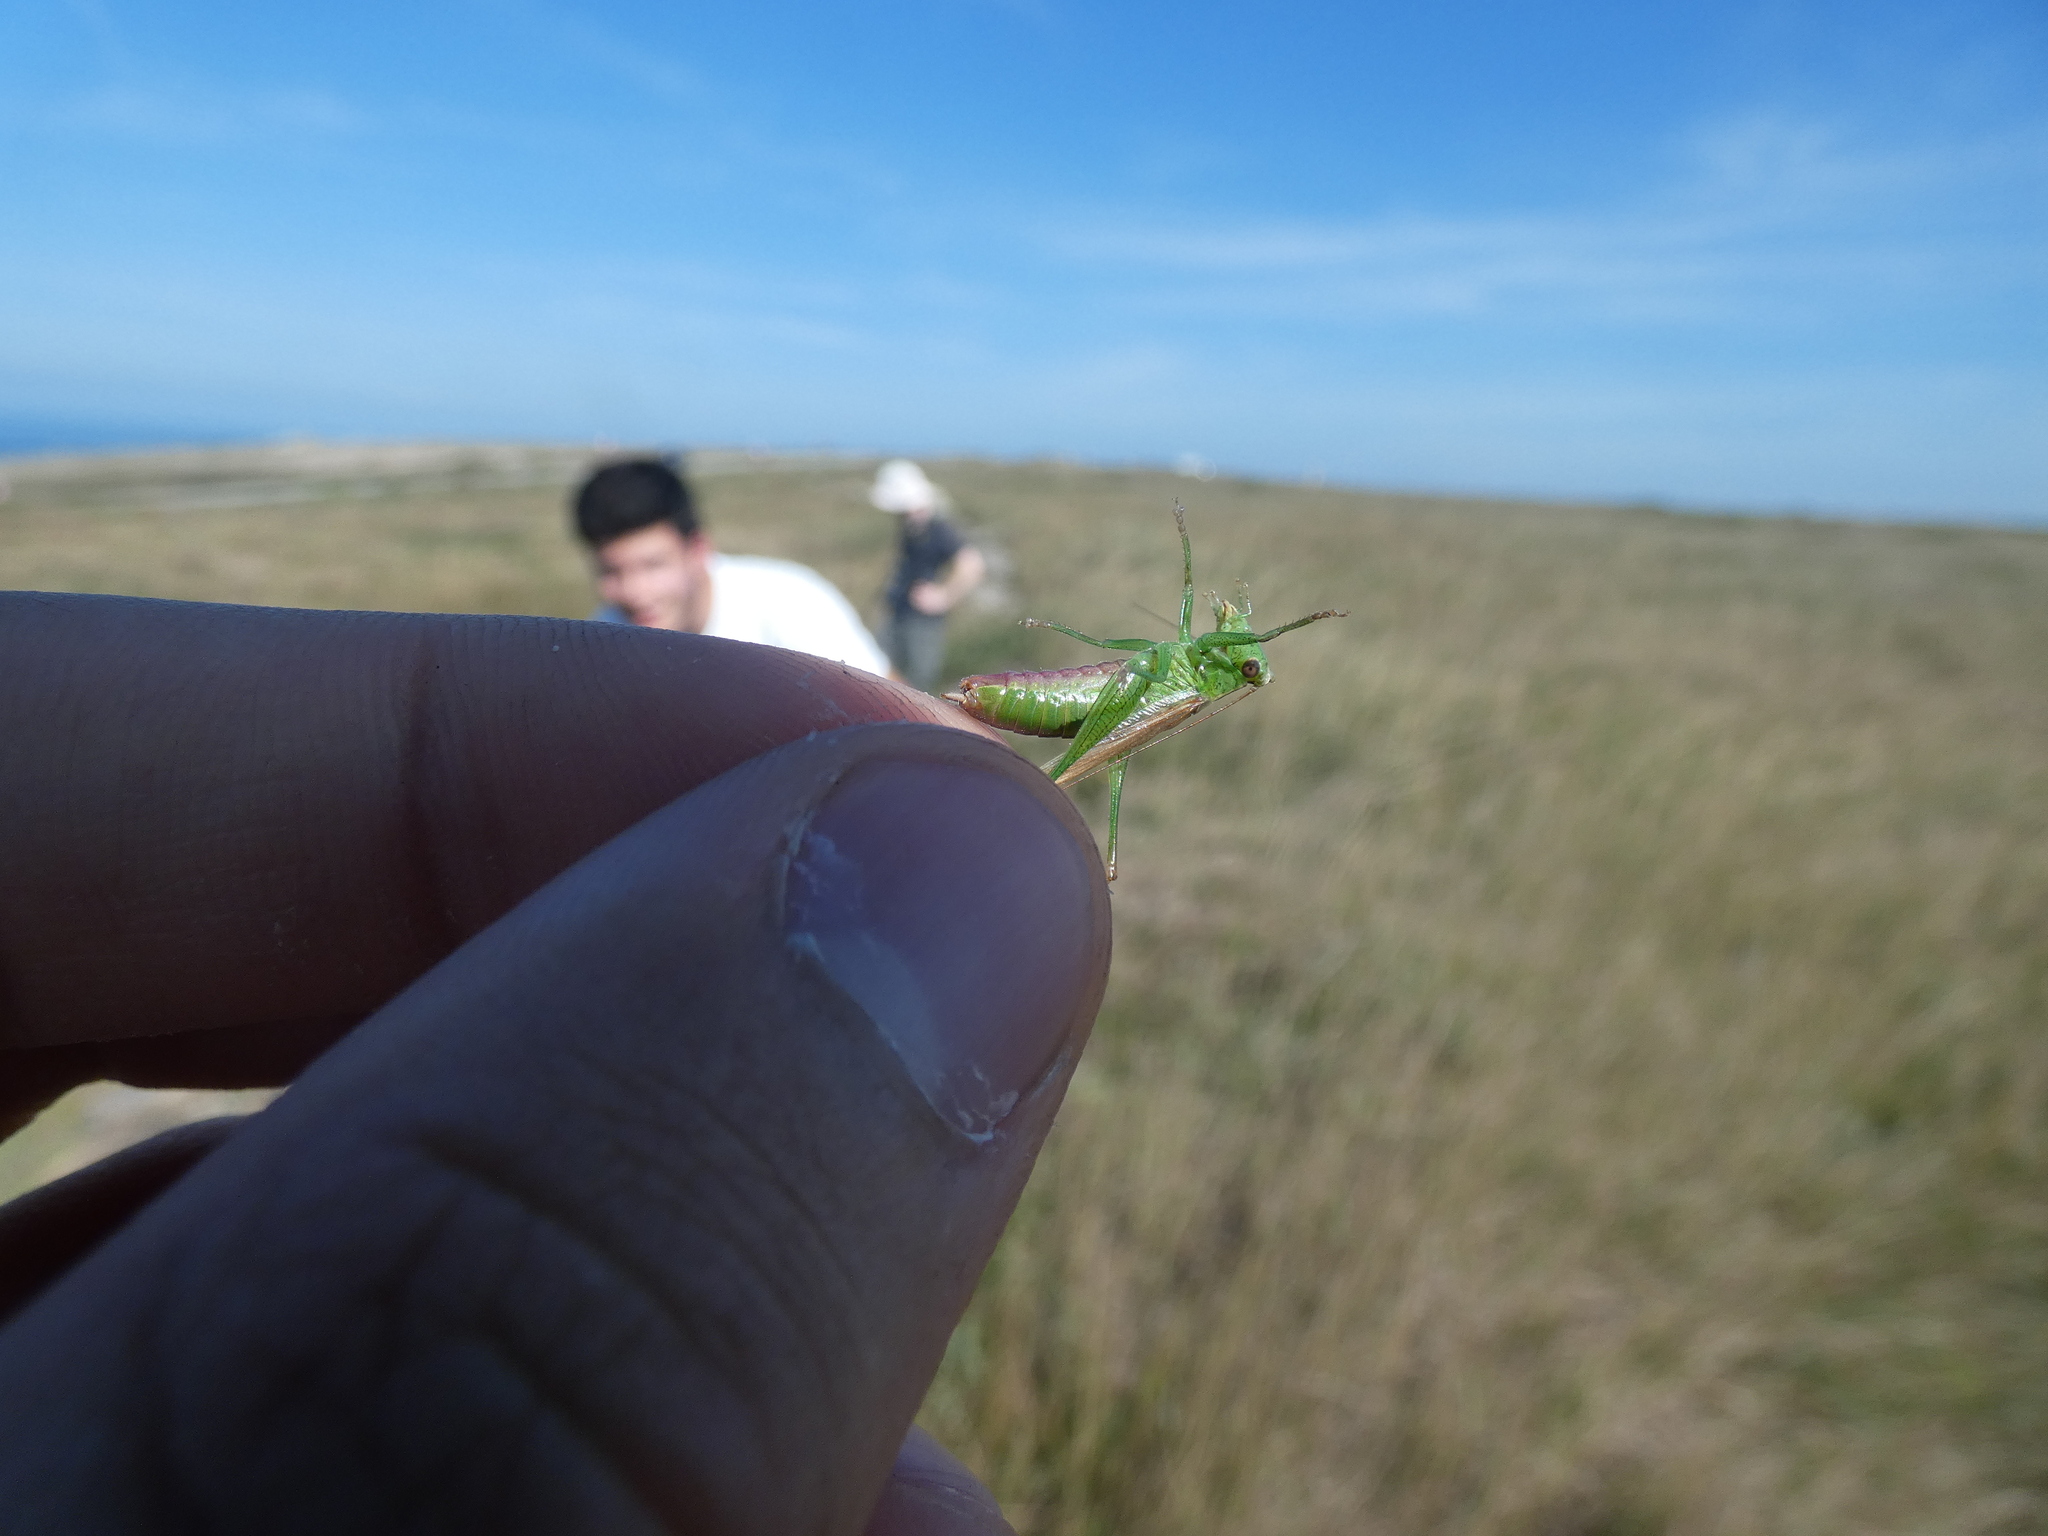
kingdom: Animalia
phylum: Arthropoda
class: Insecta
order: Orthoptera
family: Tettigoniidae
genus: Conocephalus
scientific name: Conocephalus fuscus
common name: Long-winged conehead
